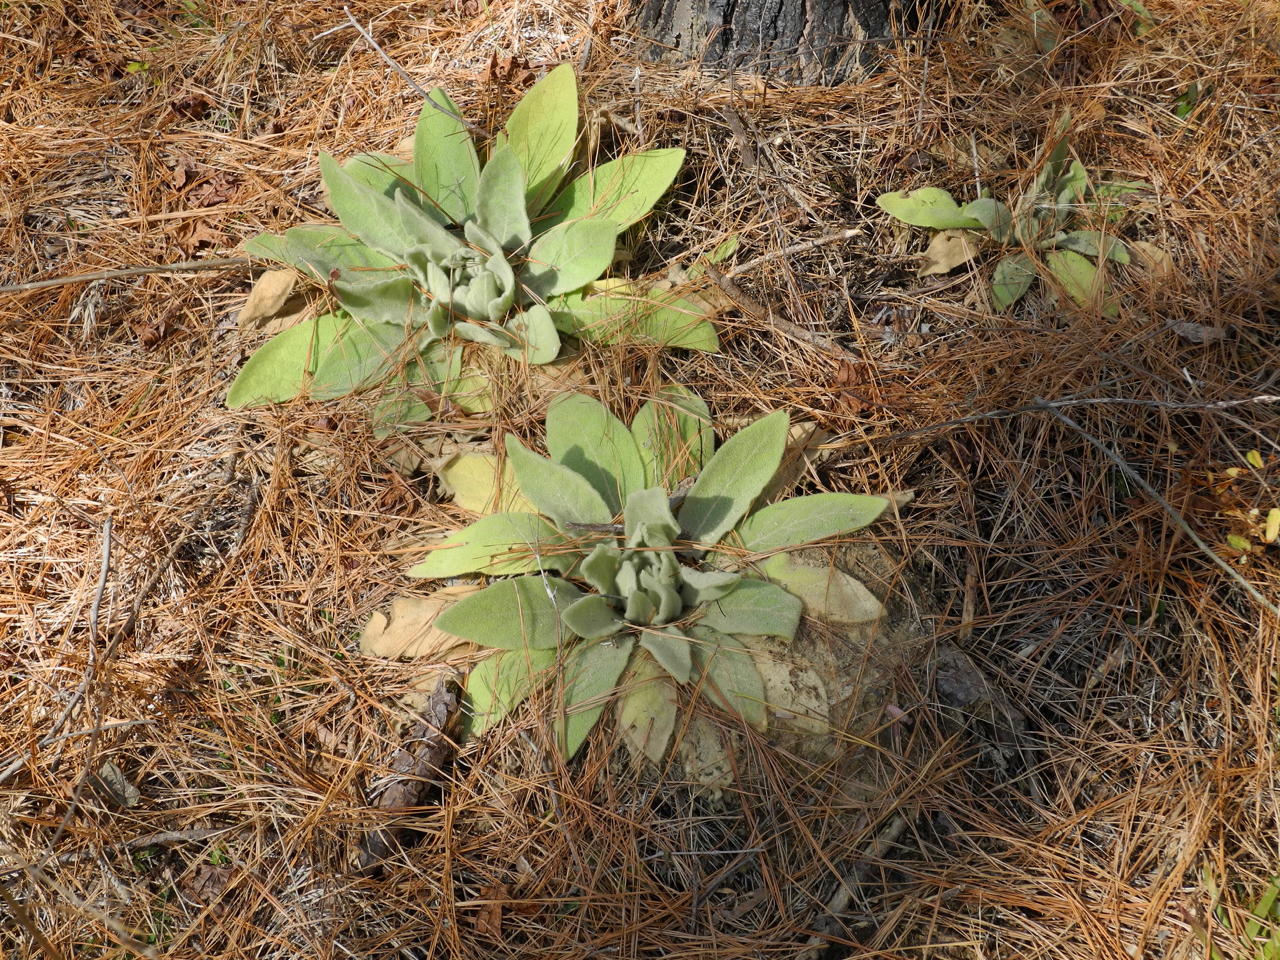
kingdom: Plantae
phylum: Tracheophyta
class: Magnoliopsida
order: Lamiales
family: Scrophulariaceae
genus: Verbascum
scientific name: Verbascum thapsus
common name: Common mullein
